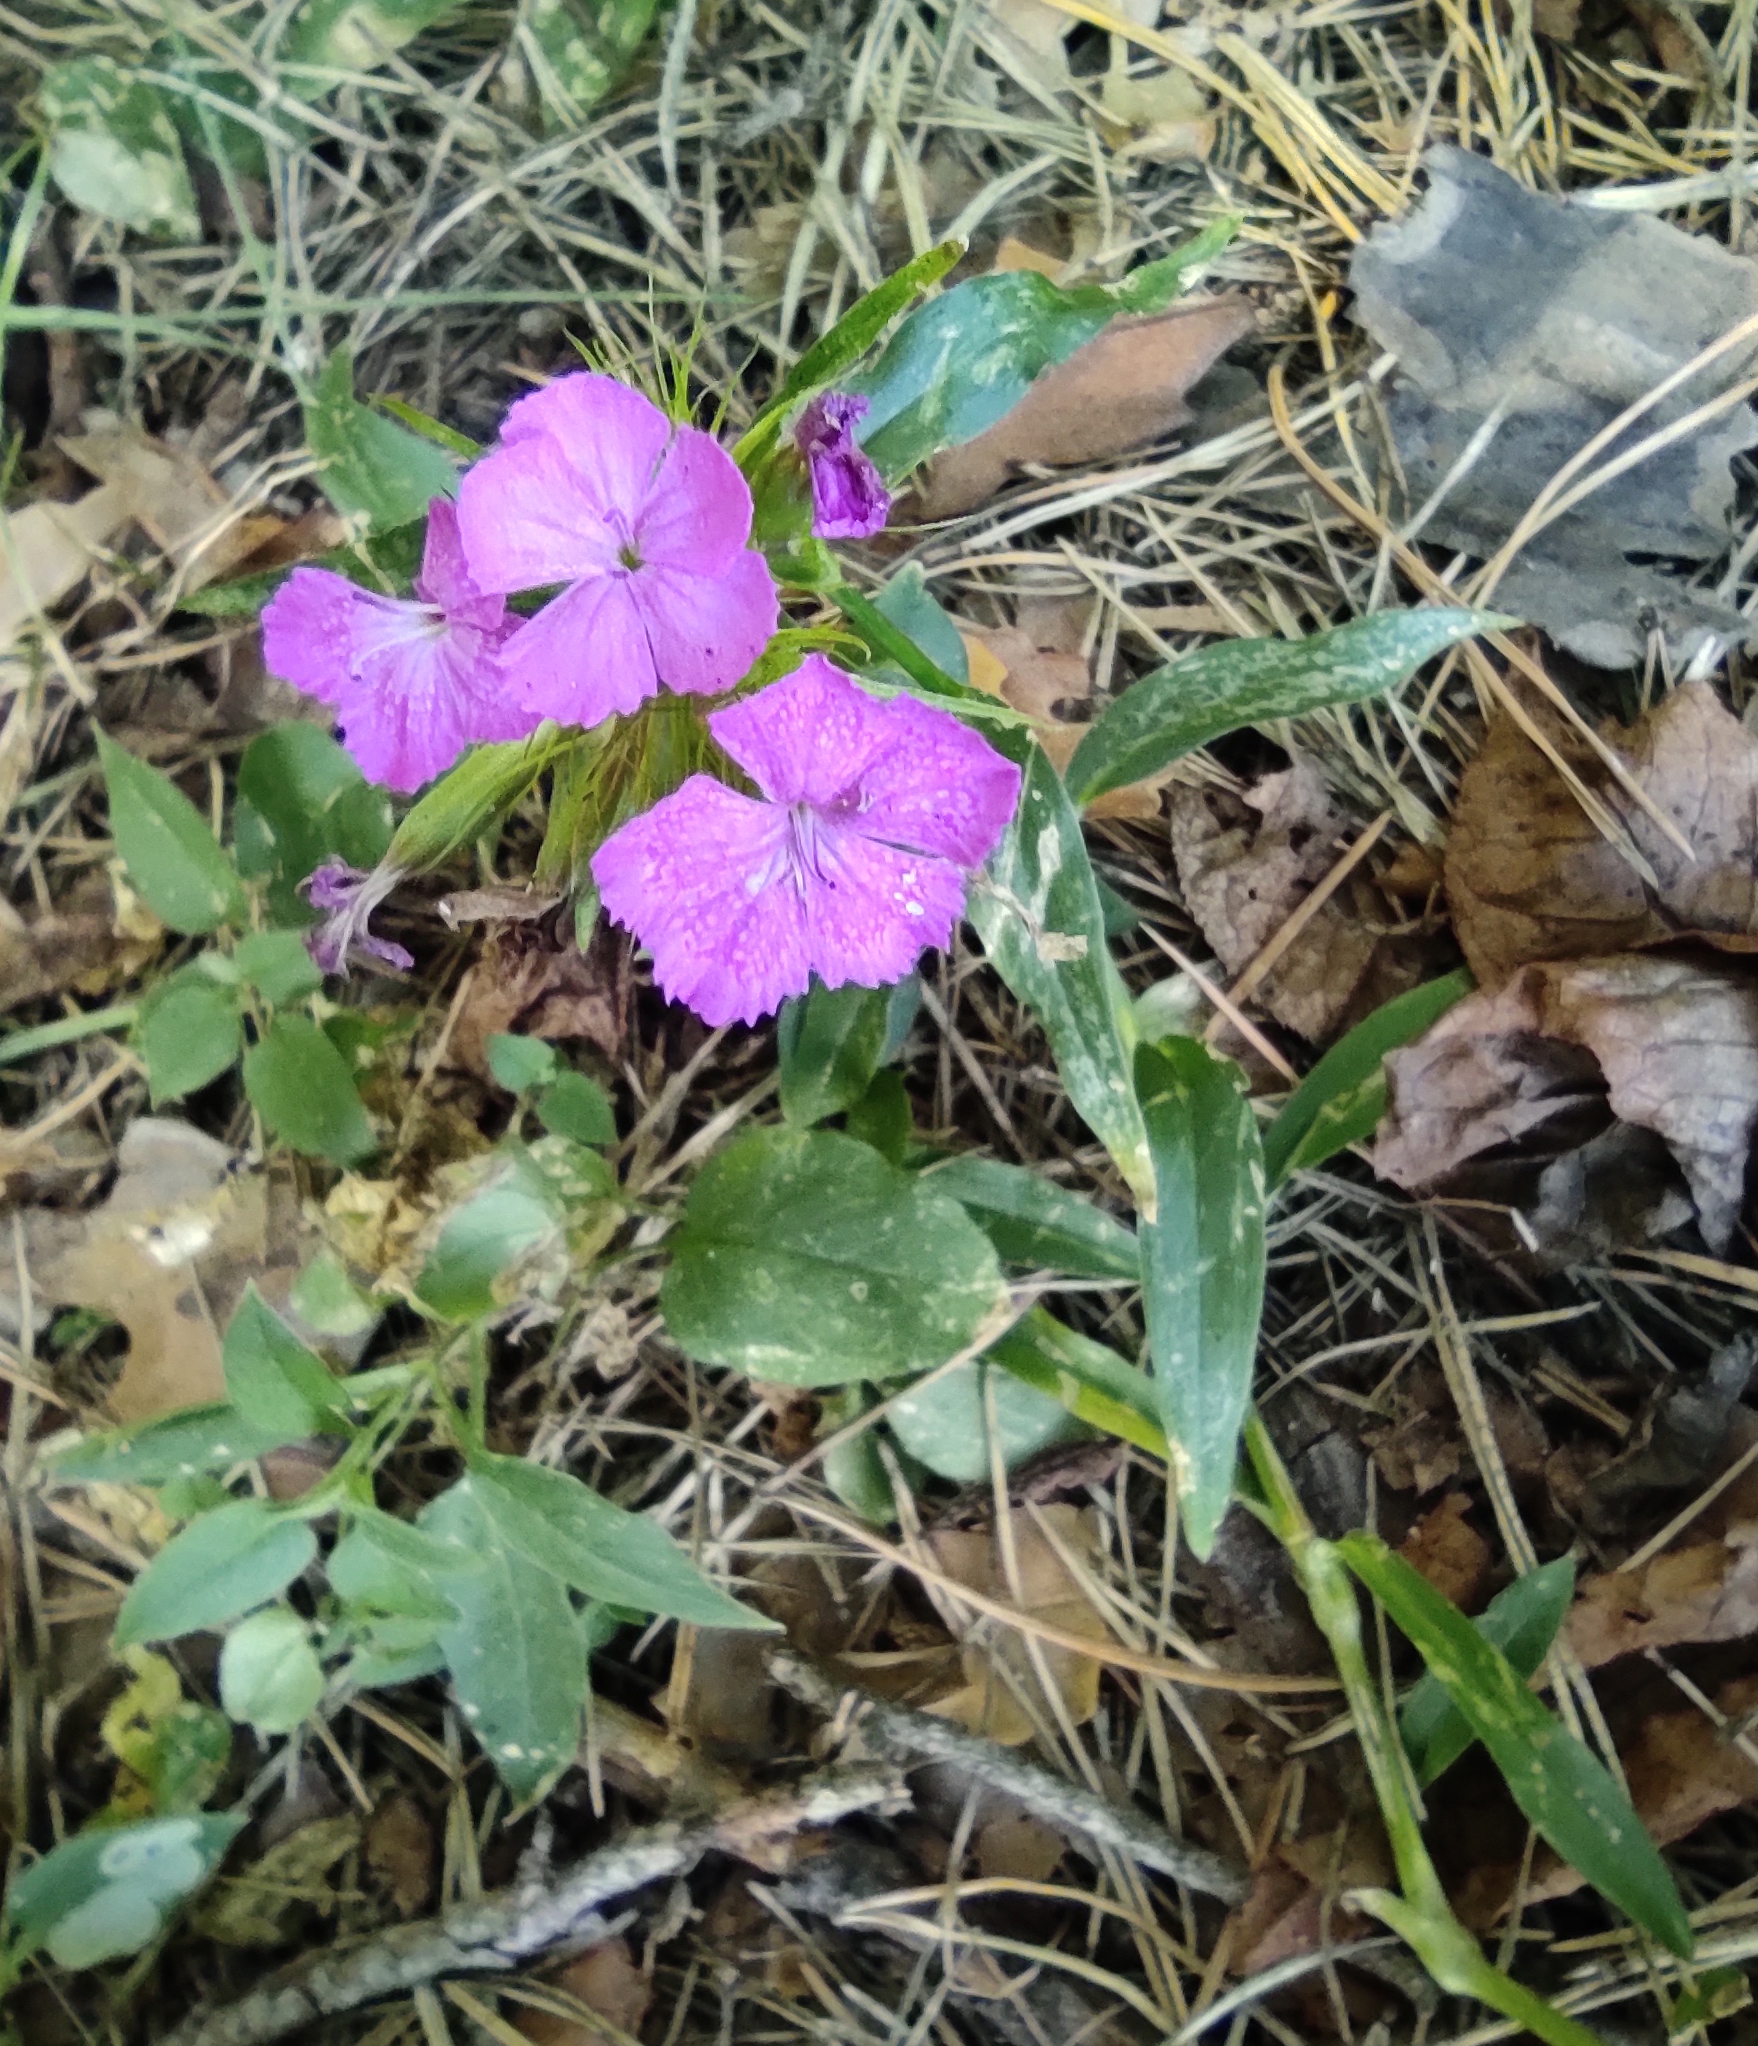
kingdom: Plantae
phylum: Tracheophyta
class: Magnoliopsida
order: Caryophyllales
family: Caryophyllaceae
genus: Dianthus
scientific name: Dianthus barbatus
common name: Sweet-william
